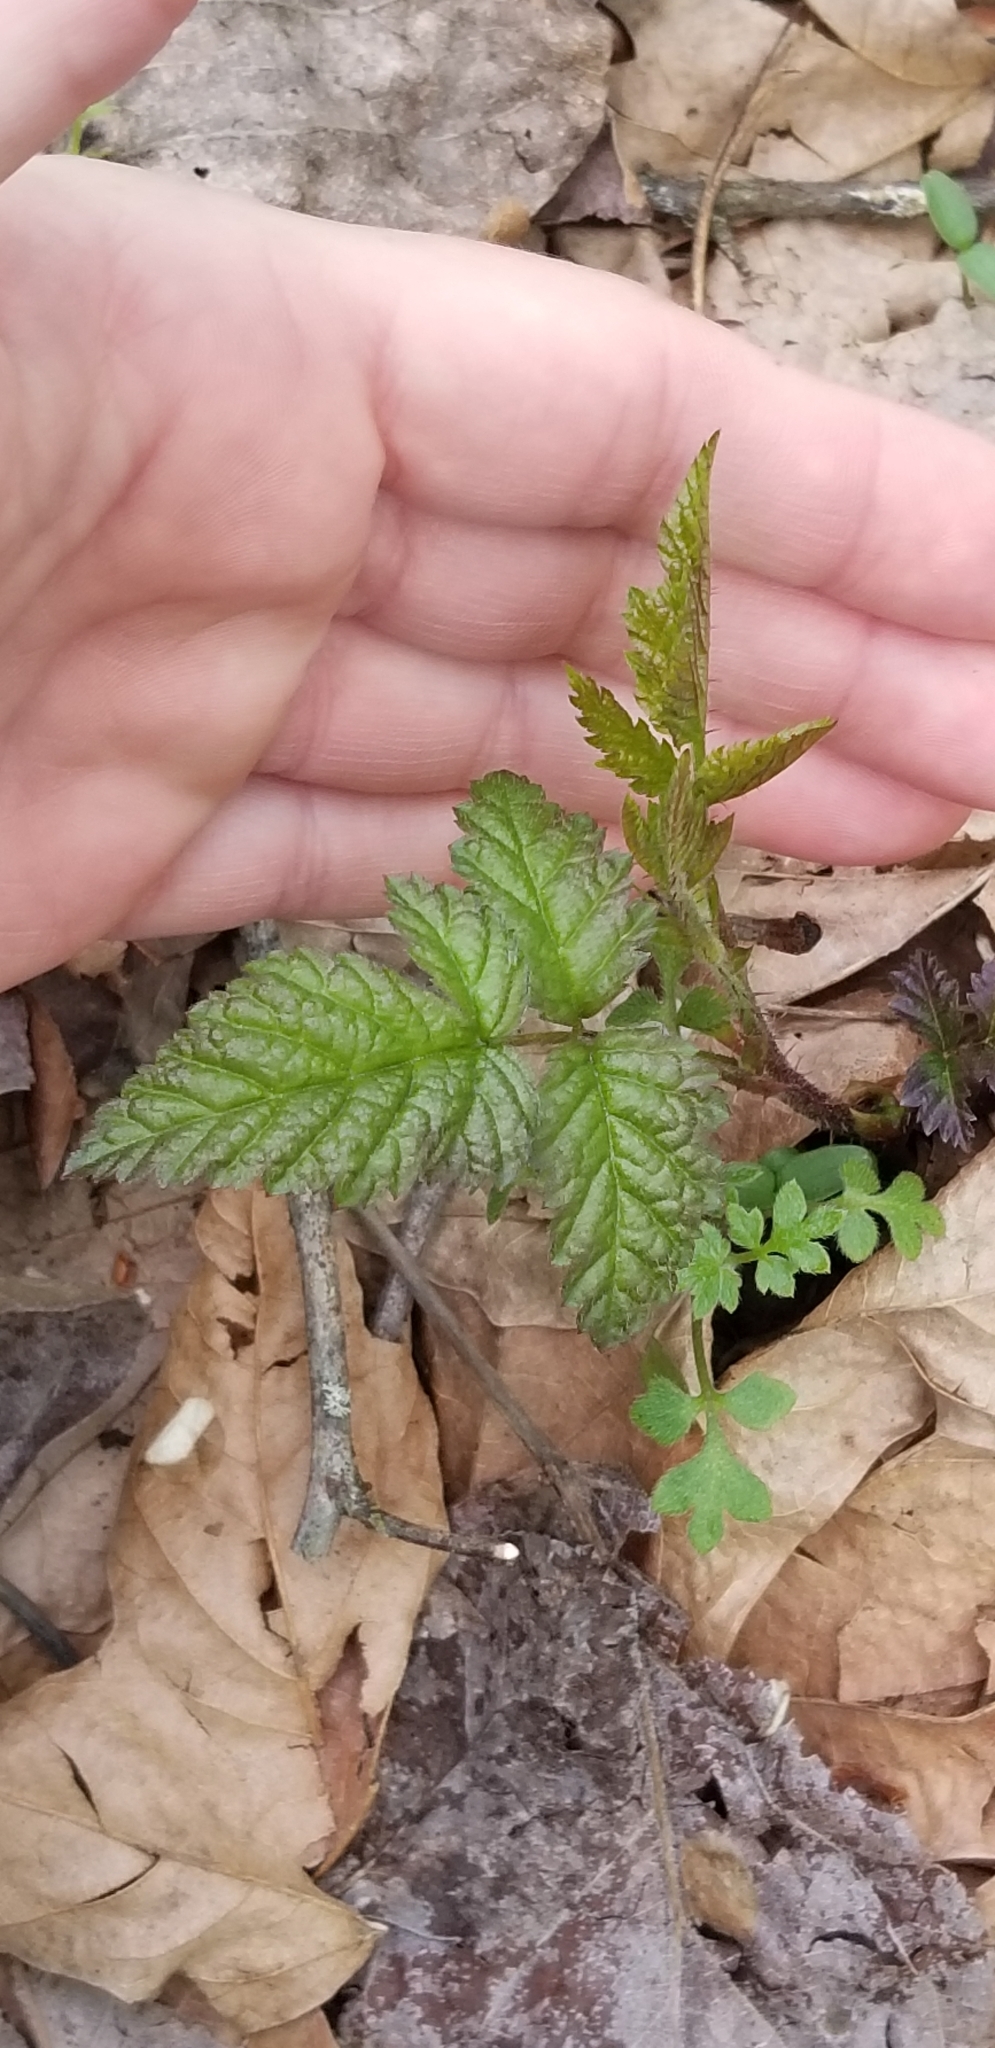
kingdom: Plantae
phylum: Tracheophyta
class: Magnoliopsida
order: Boraginales
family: Hydrophyllaceae
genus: Nemophila
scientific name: Nemophila parviflora
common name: Small-flowered baby-blue-eyes
